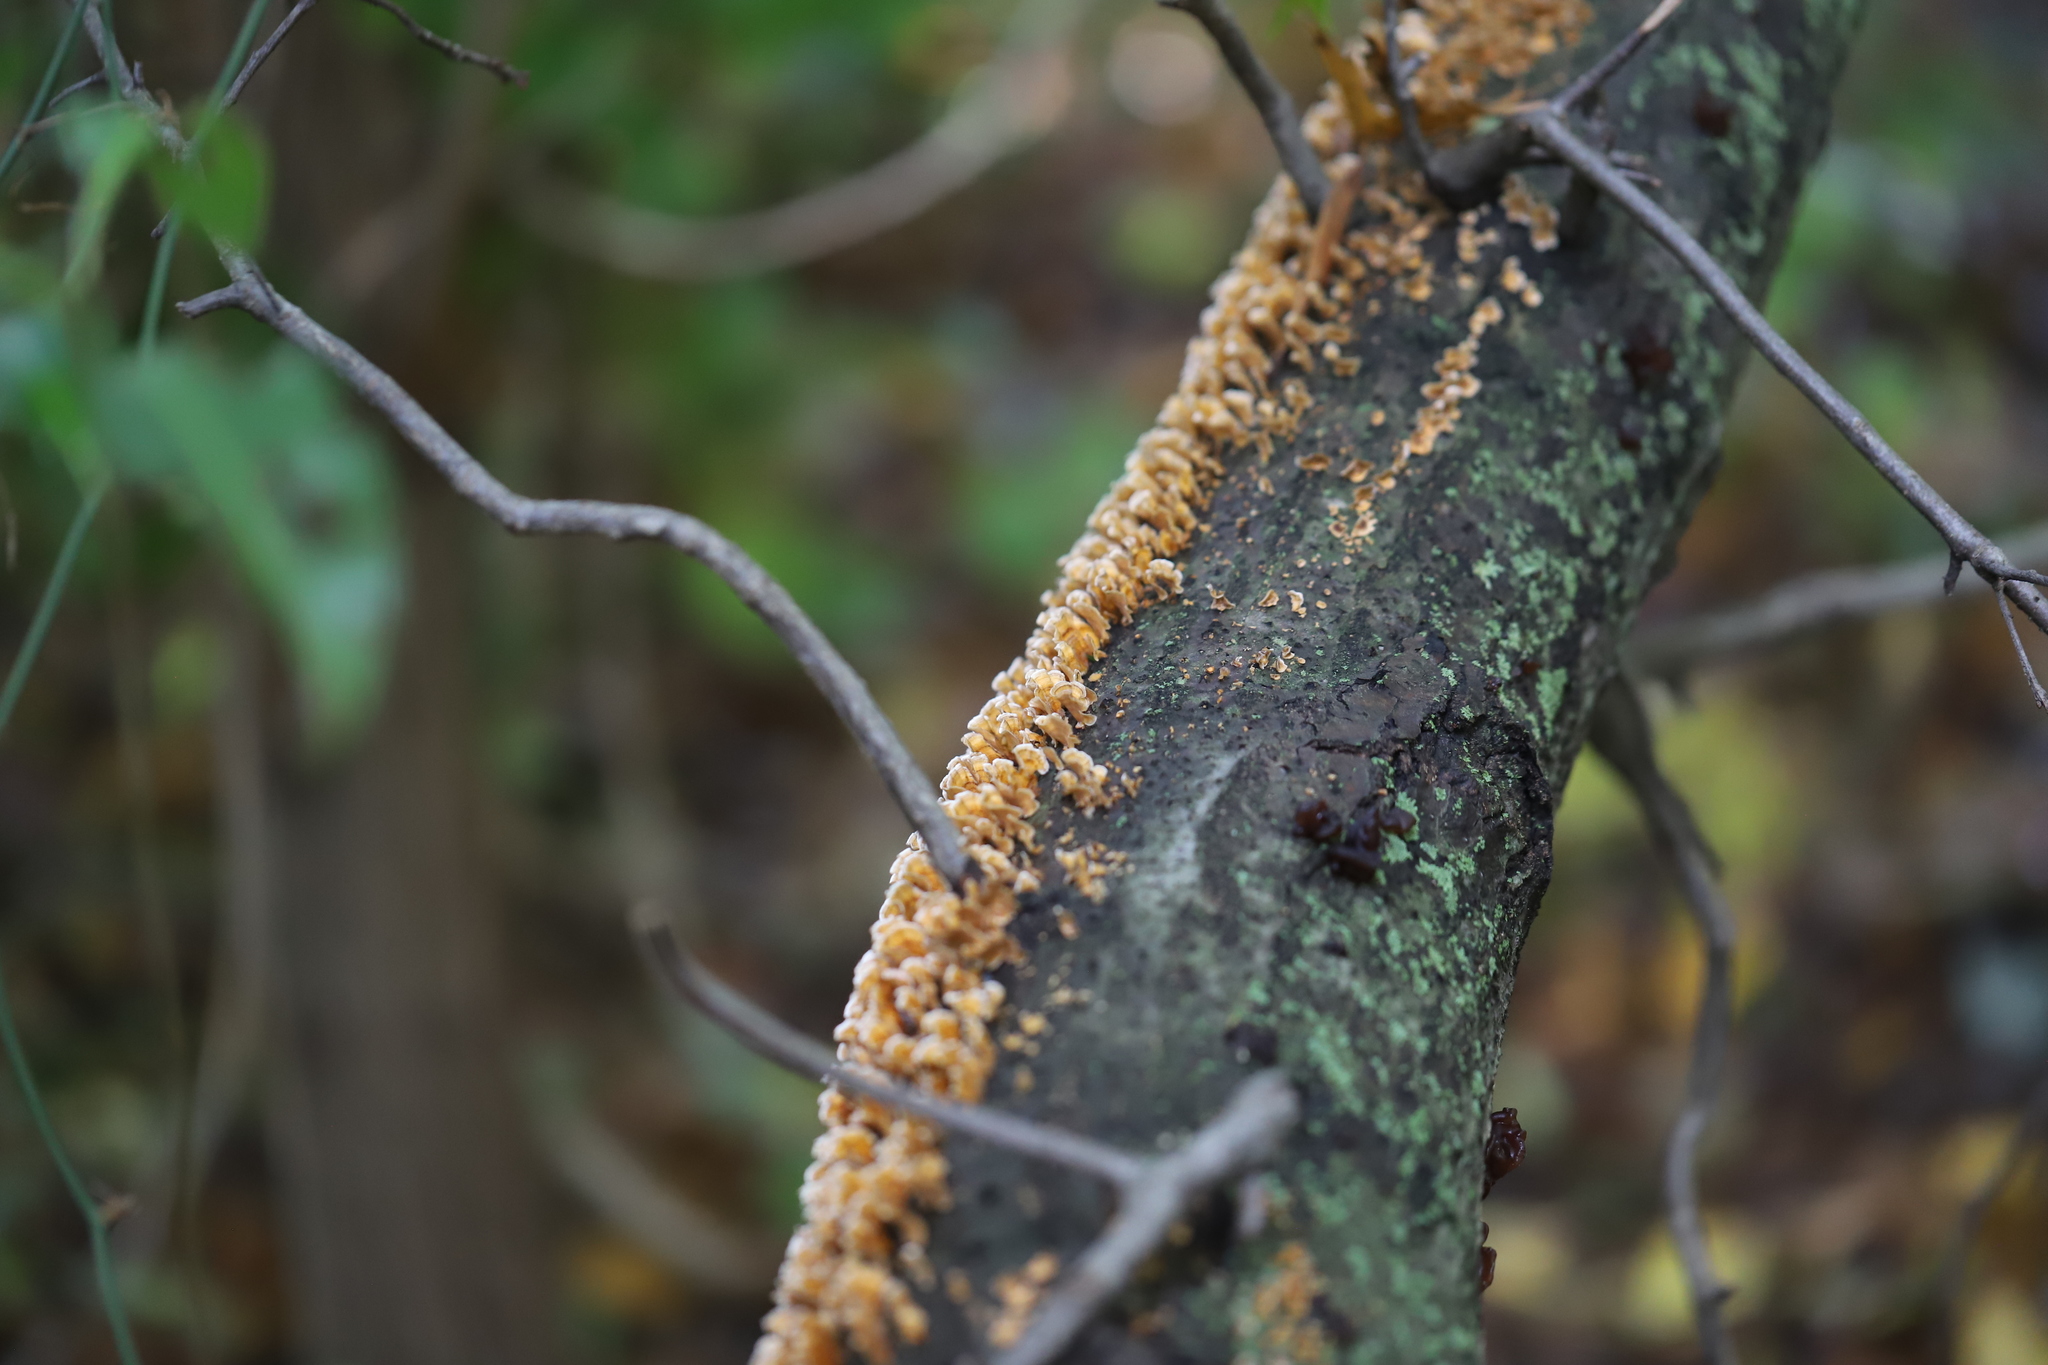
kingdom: Fungi
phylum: Basidiomycota
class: Agaricomycetes
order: Russulales
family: Stereaceae
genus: Stereum
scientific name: Stereum complicatum
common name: Crowded parchment
